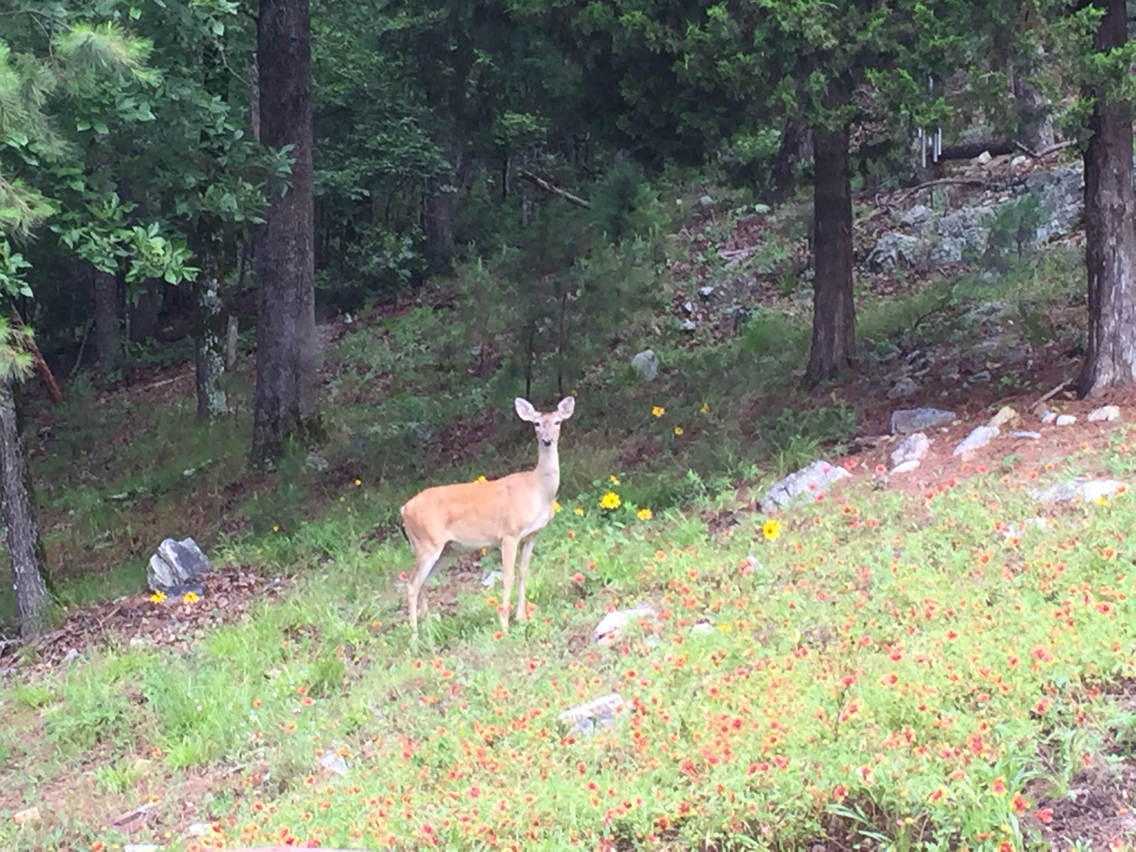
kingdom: Animalia
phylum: Chordata
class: Mammalia
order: Artiodactyla
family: Cervidae
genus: Odocoileus
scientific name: Odocoileus virginianus
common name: White-tailed deer
